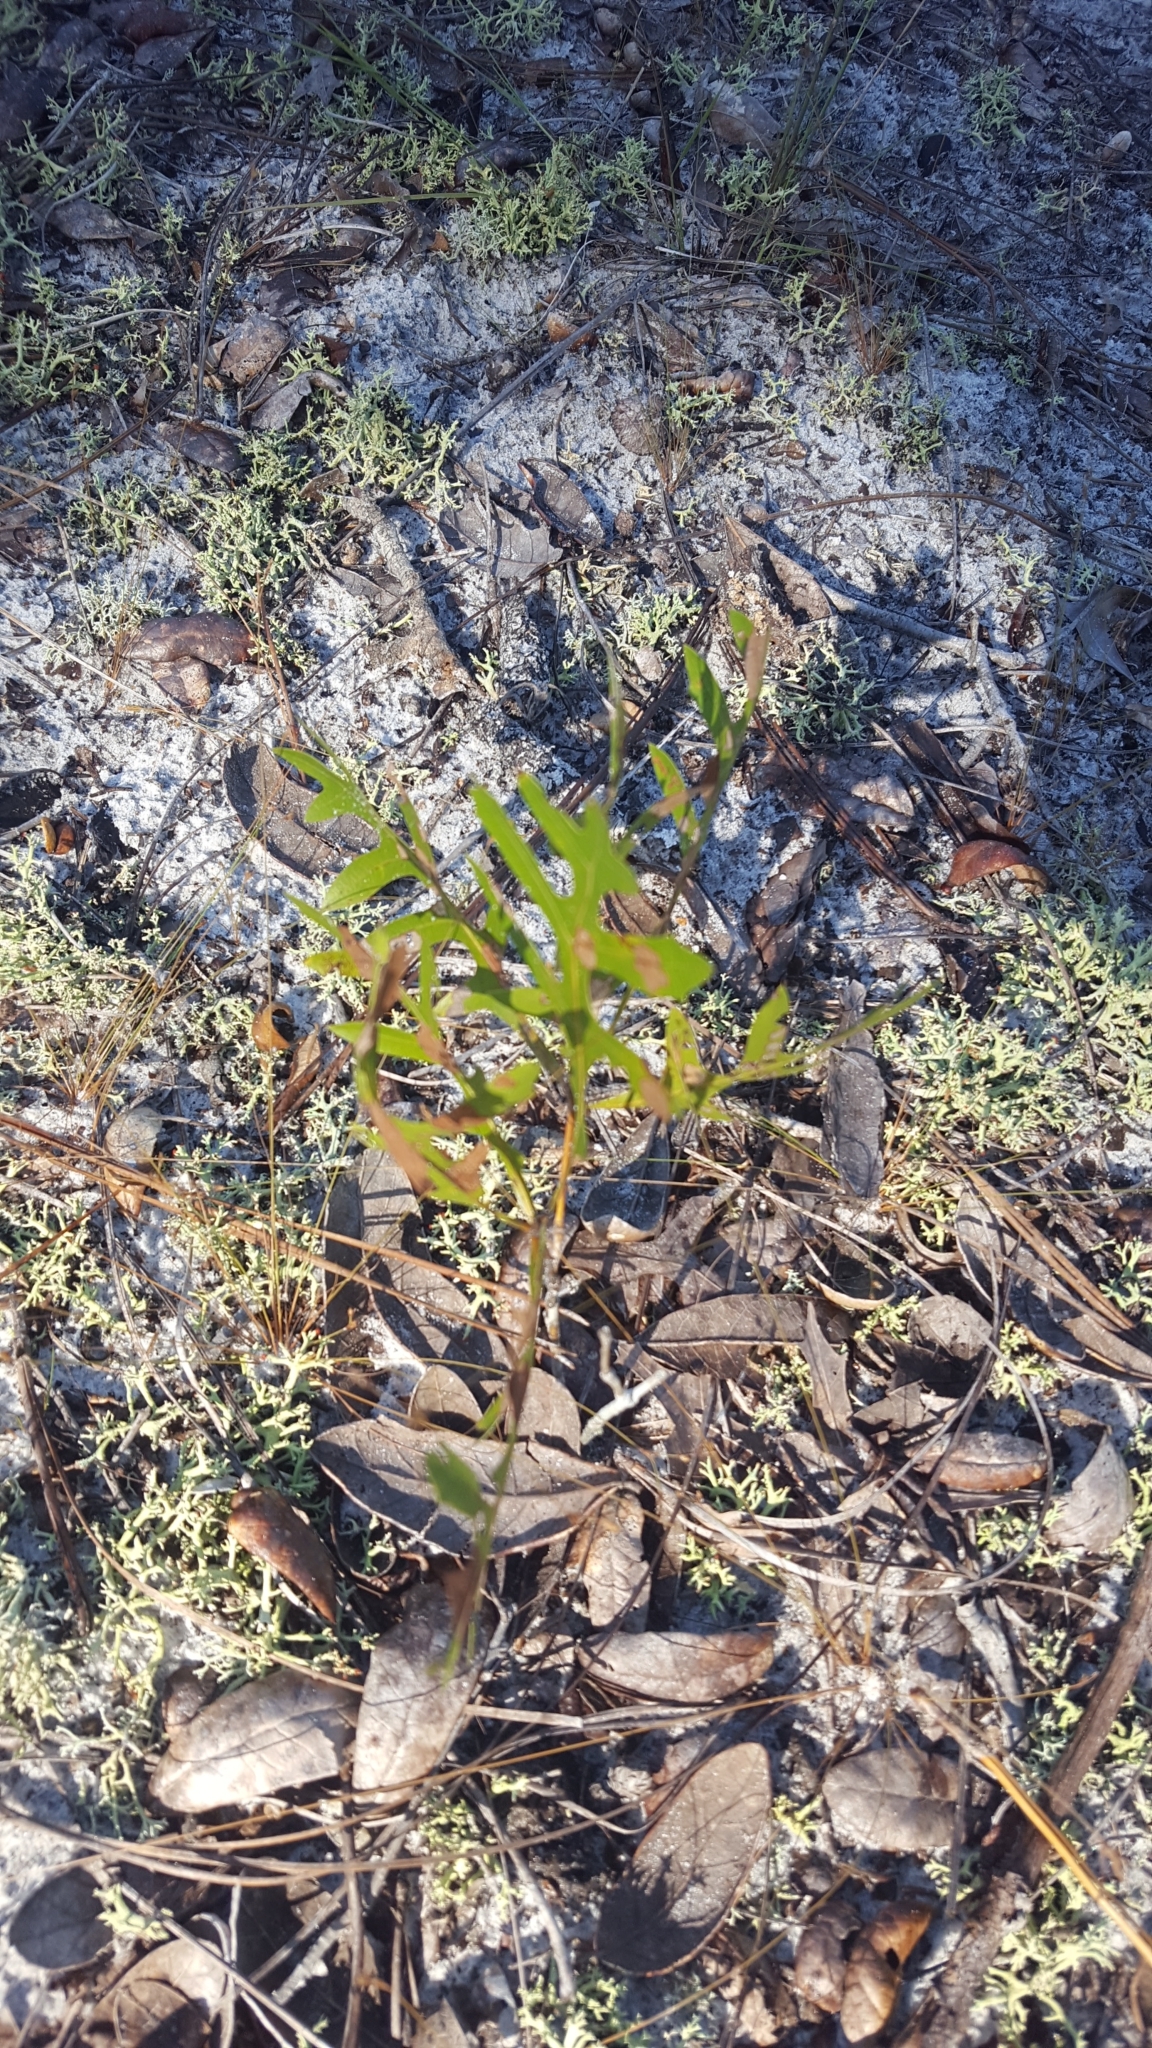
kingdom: Plantae
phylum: Tracheophyta
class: Magnoliopsida
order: Fagales
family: Fagaceae
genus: Quercus
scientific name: Quercus laevis
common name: Turkey oak
